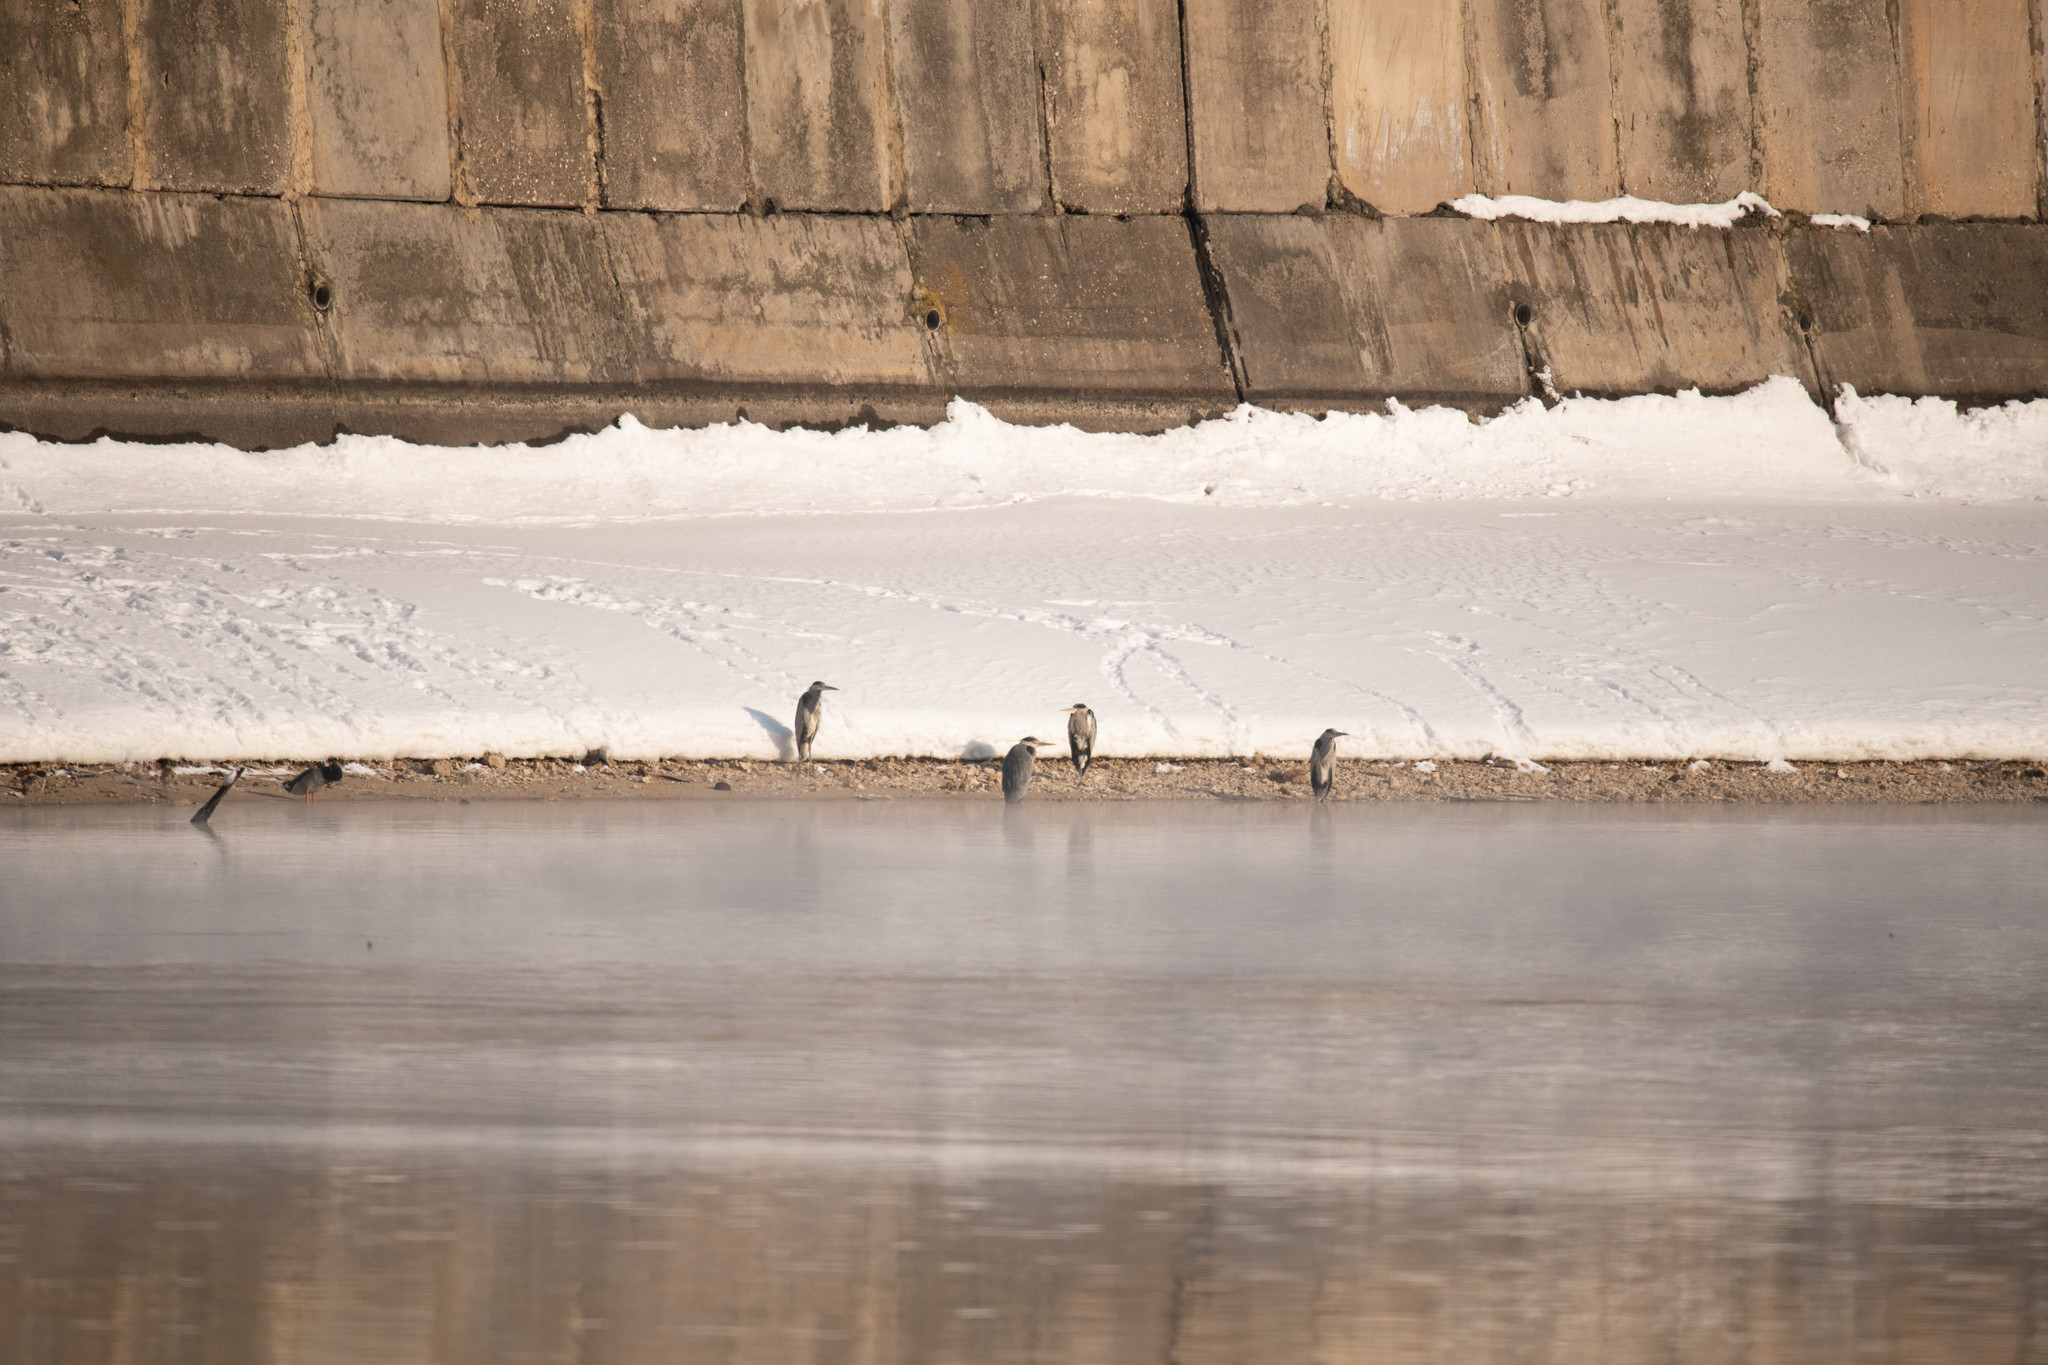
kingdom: Animalia
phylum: Chordata
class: Aves
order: Pelecaniformes
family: Ardeidae
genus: Ardea
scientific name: Ardea cinerea
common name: Grey heron
